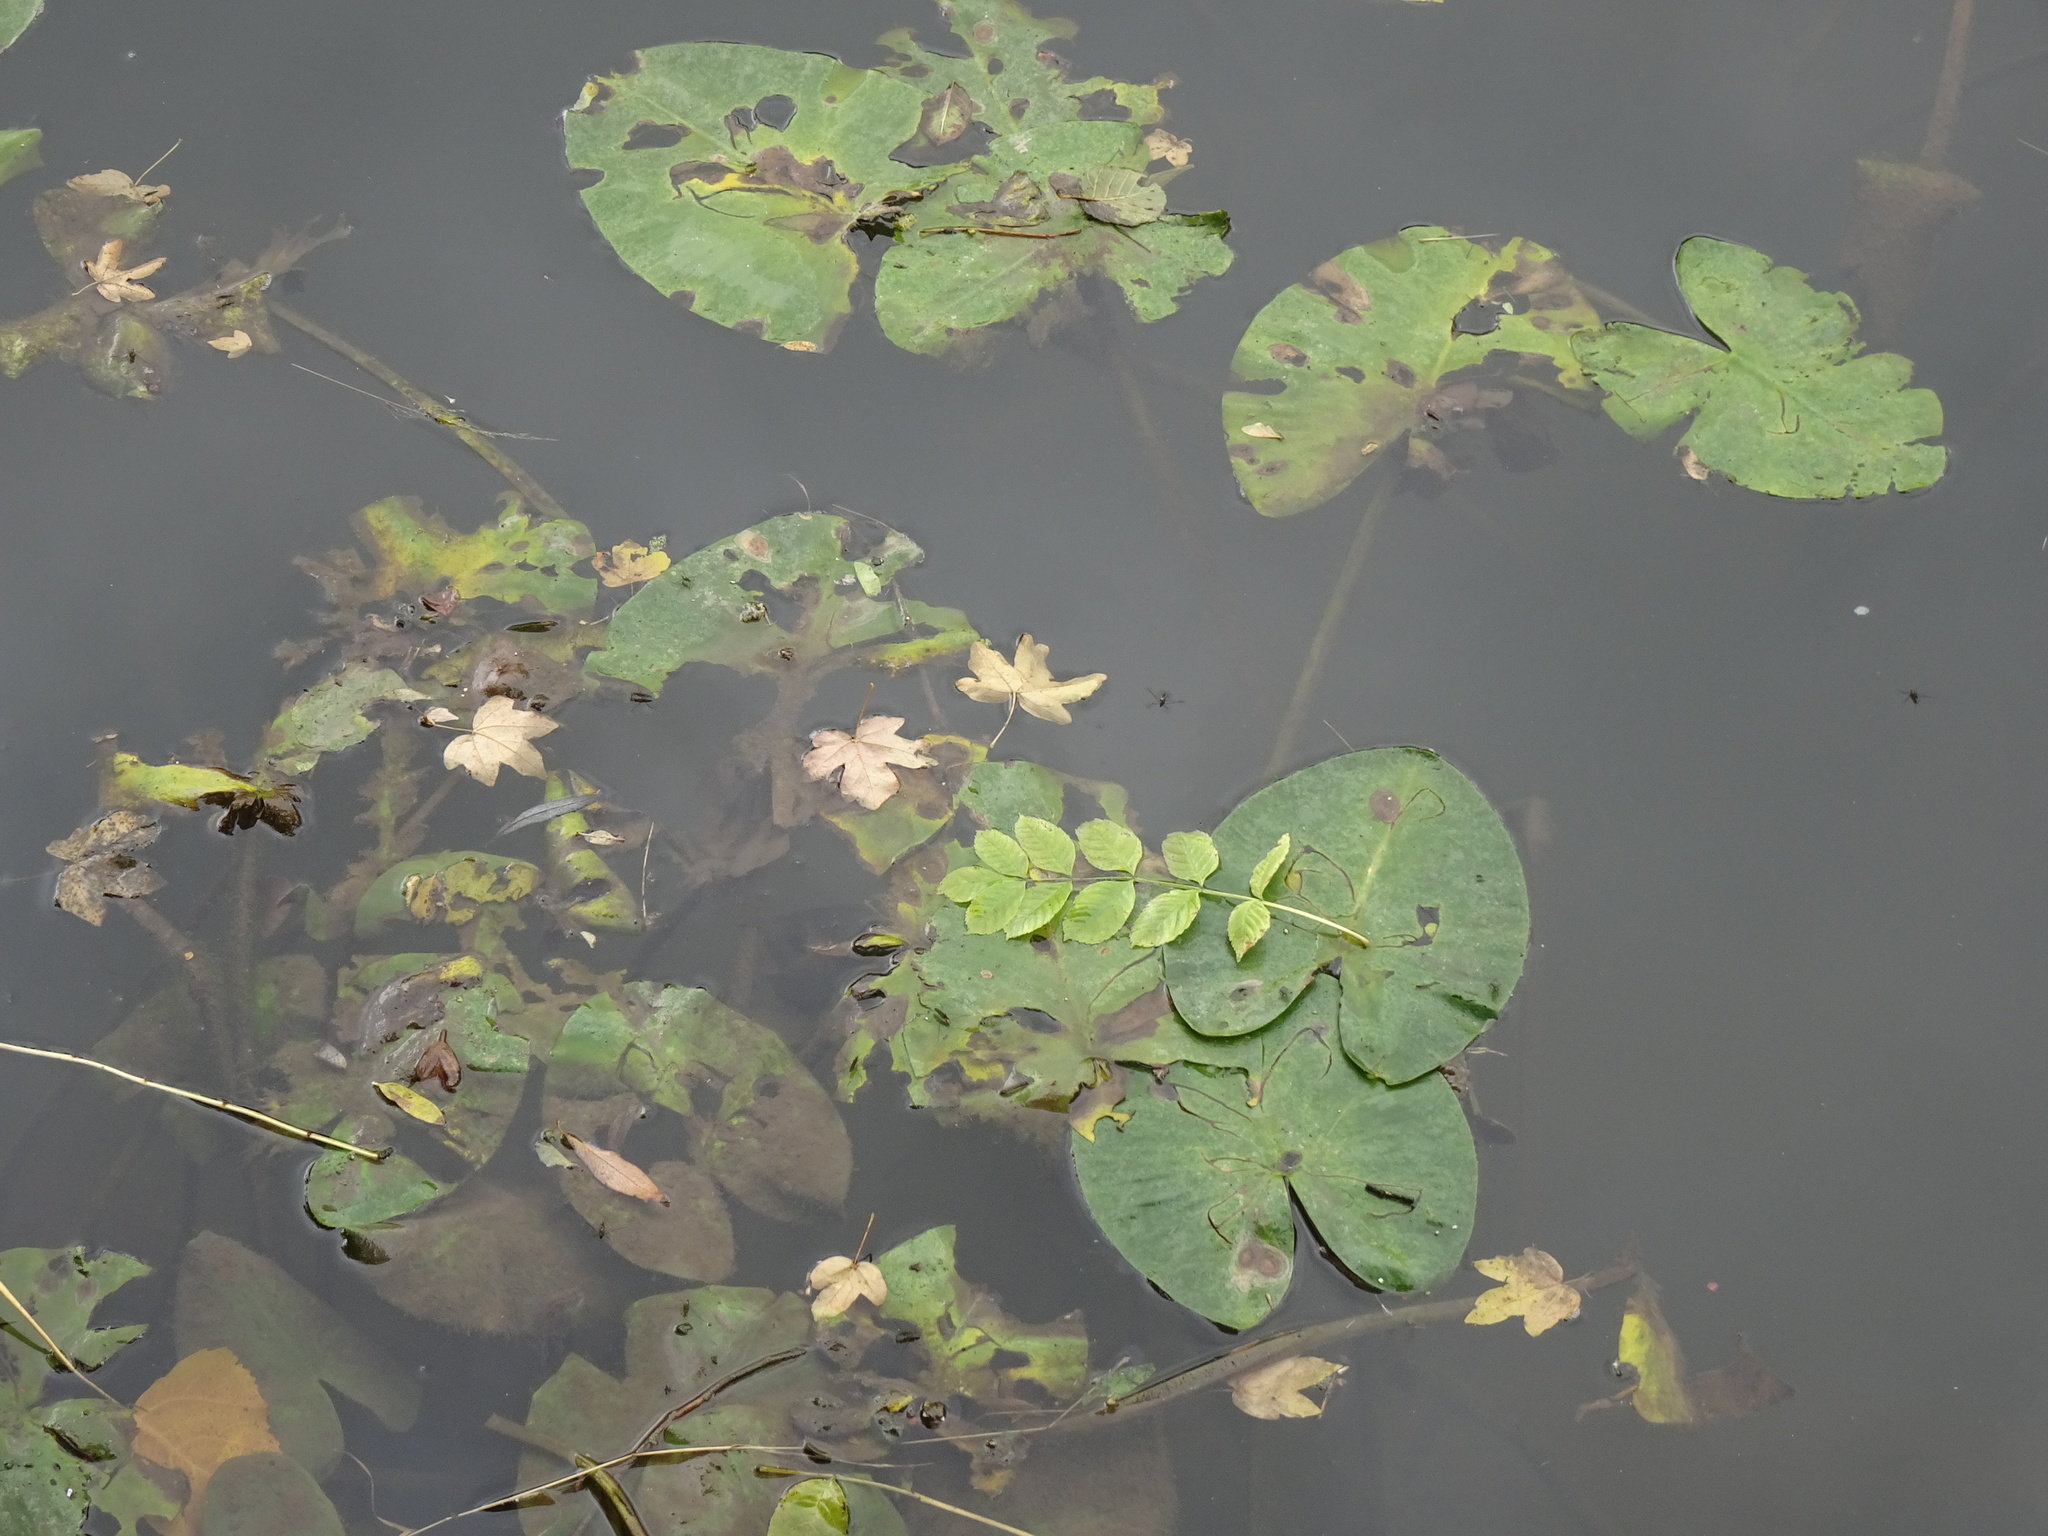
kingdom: Plantae
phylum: Tracheophyta
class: Magnoliopsida
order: Nymphaeales
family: Nymphaeaceae
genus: Nuphar
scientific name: Nuphar lutea
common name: Yellow water-lily
